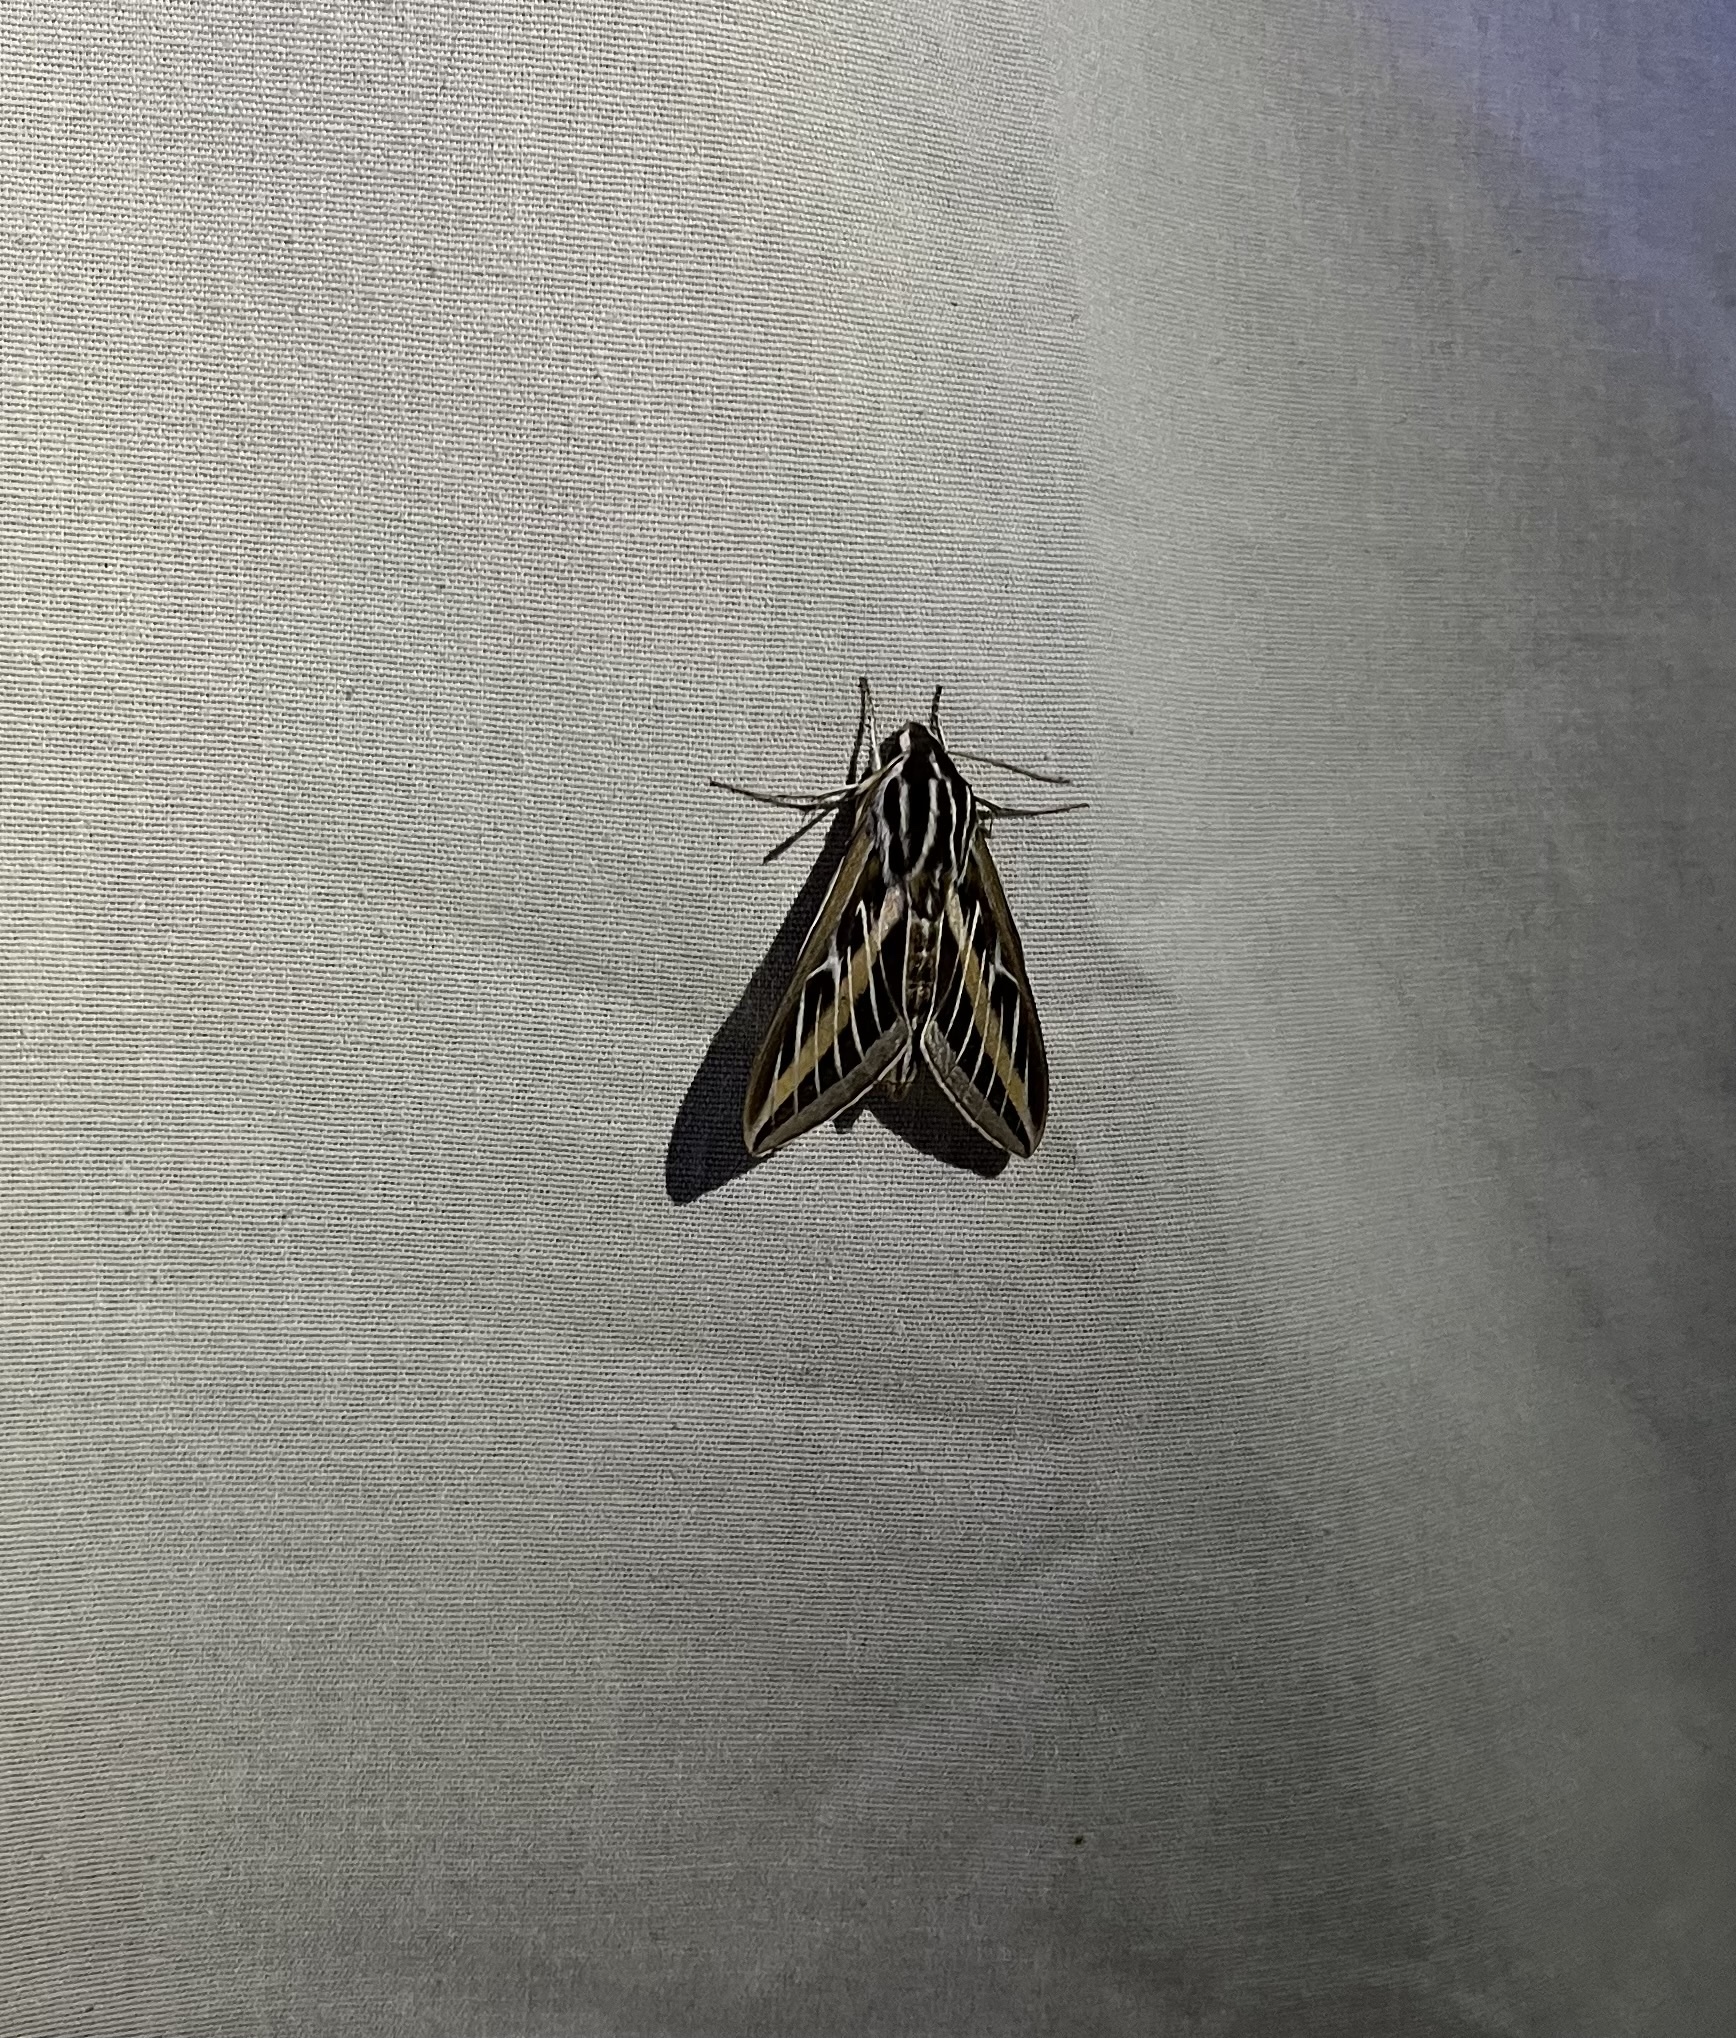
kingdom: Animalia
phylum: Arthropoda
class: Insecta
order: Lepidoptera
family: Sphingidae
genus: Hyles
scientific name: Hyles lineata
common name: White-lined sphinx
